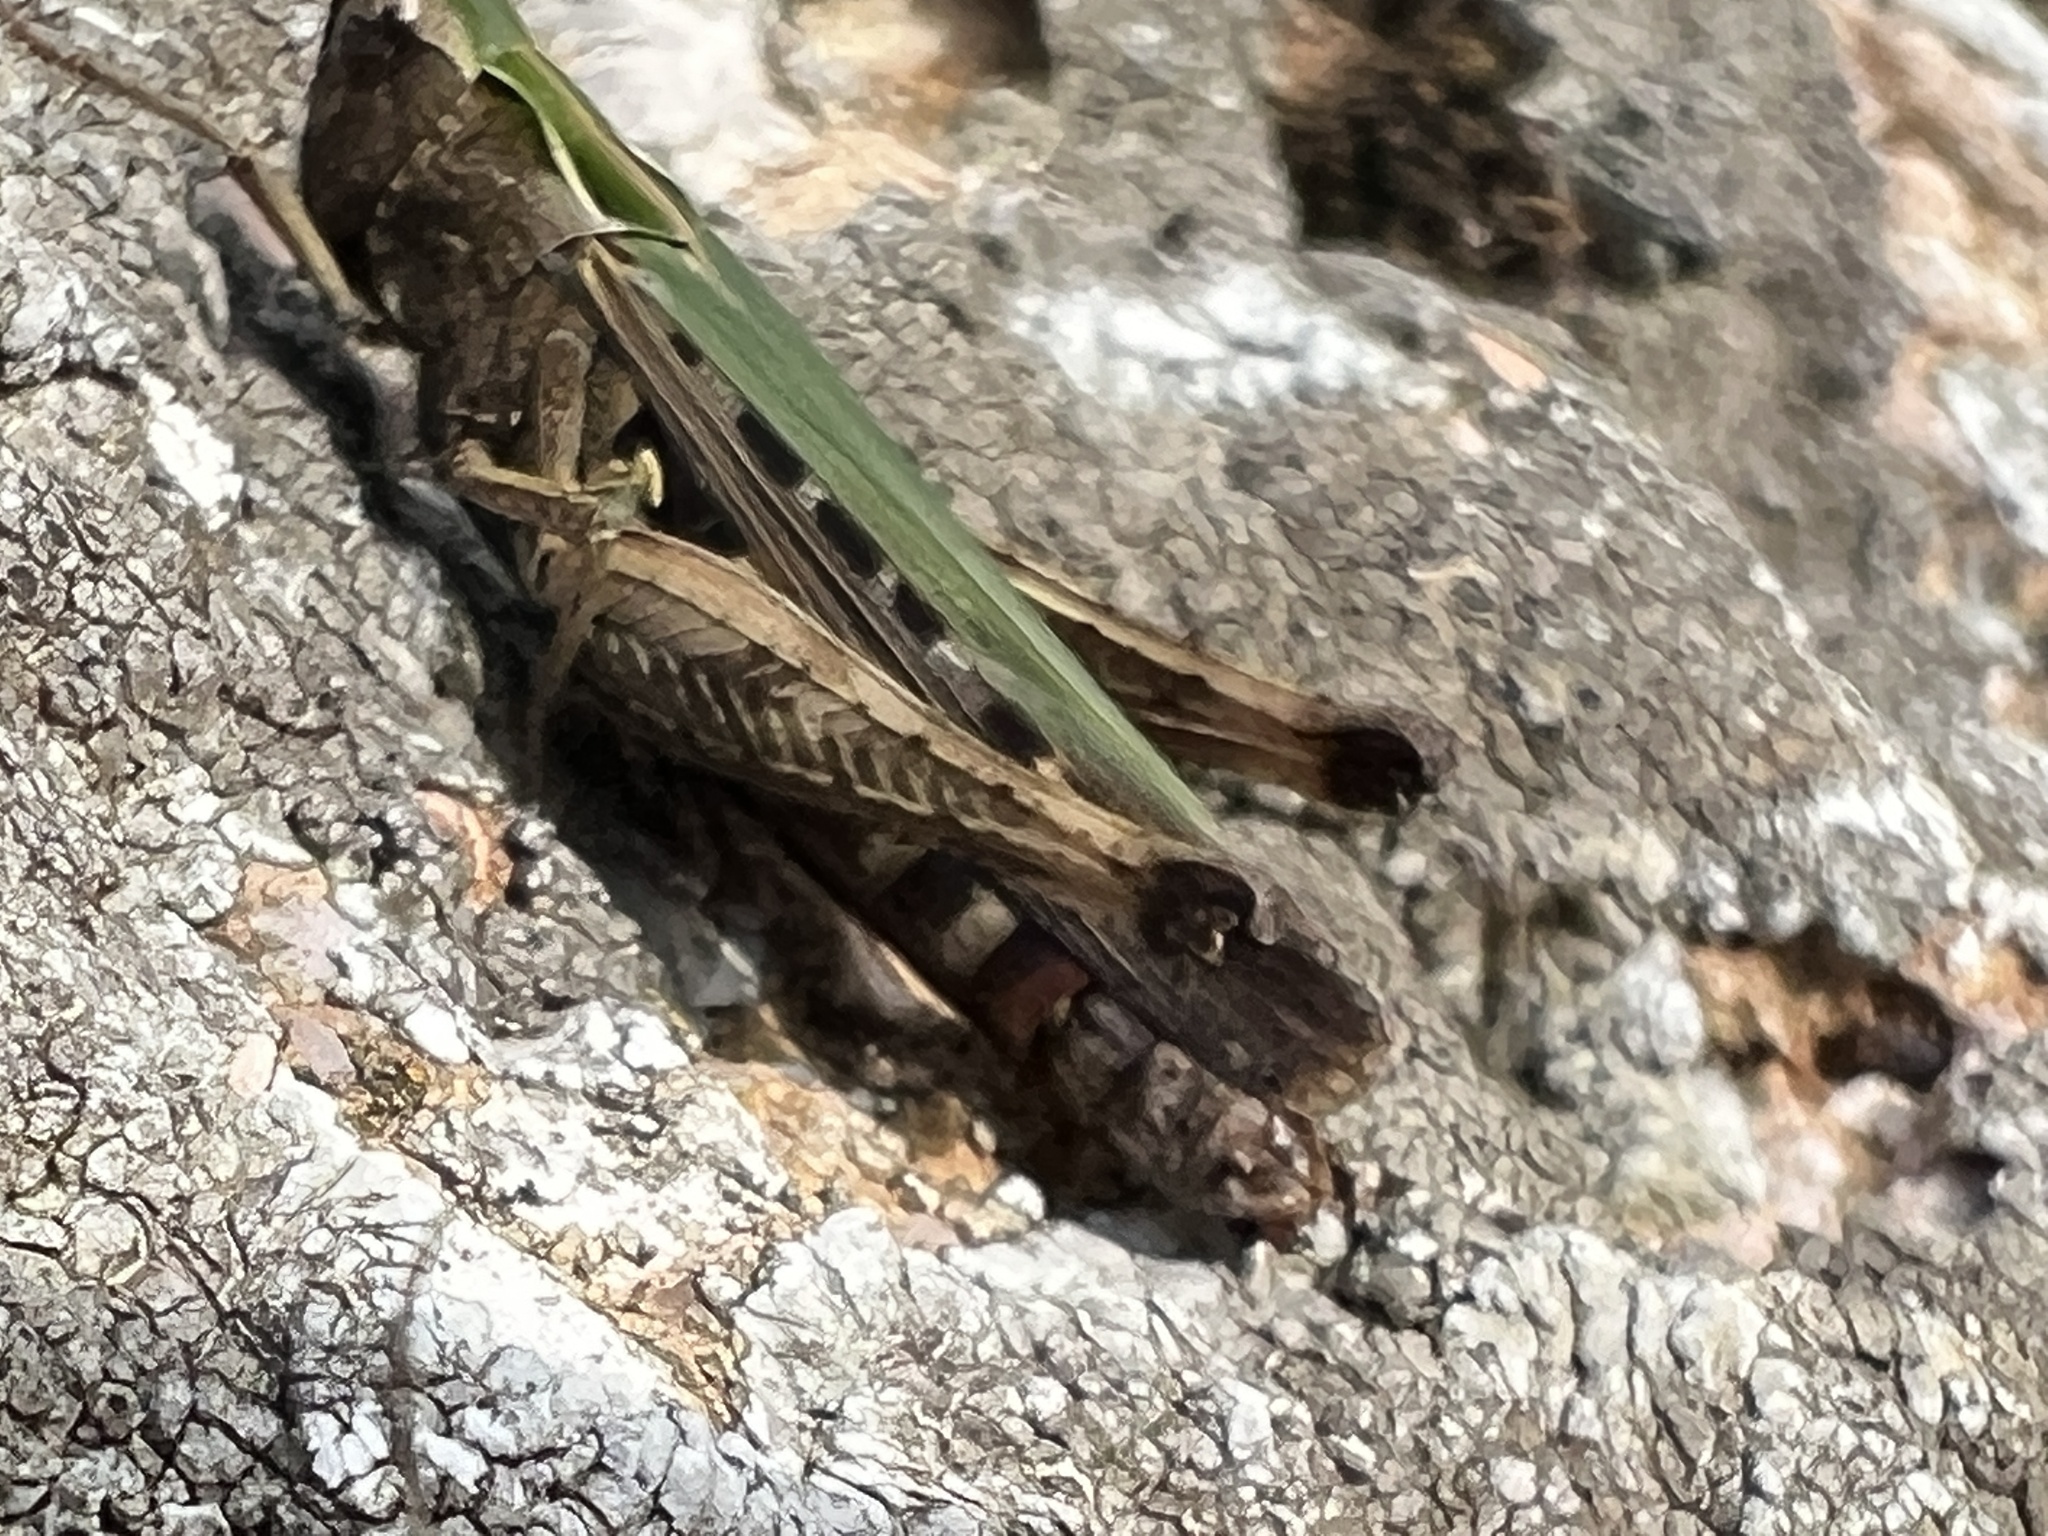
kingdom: Animalia
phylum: Arthropoda
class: Insecta
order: Orthoptera
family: Acrididae
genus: Omocestus
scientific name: Omocestus rufipes
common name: Woodland grasshopper
